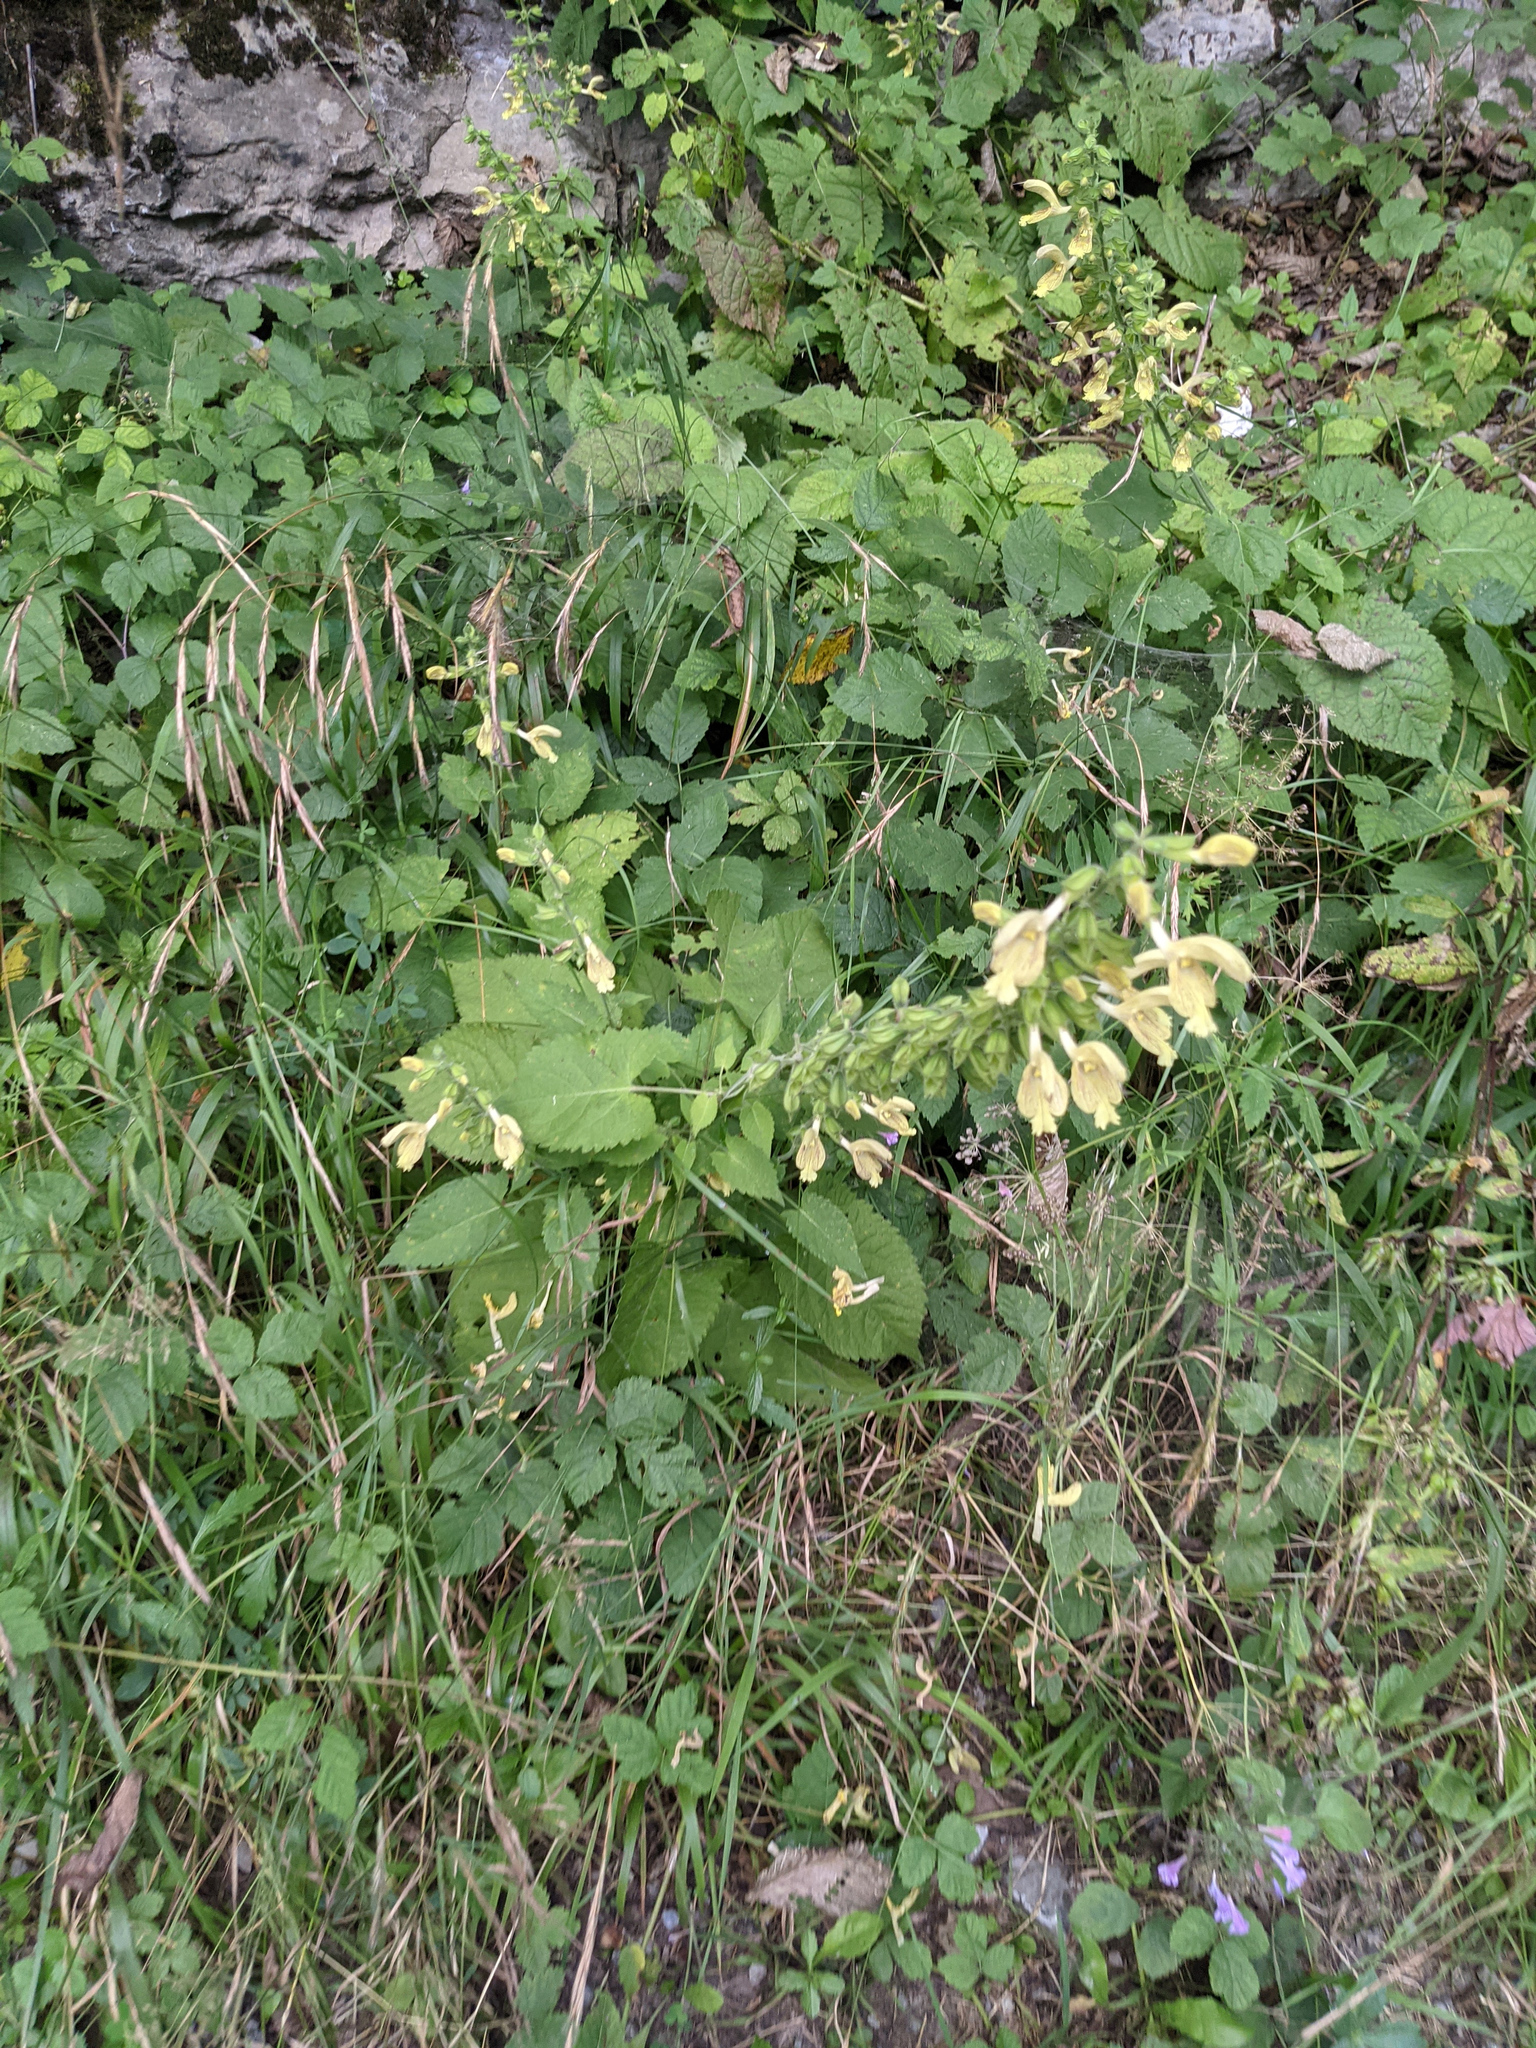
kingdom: Plantae
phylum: Tracheophyta
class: Magnoliopsida
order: Lamiales
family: Lamiaceae
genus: Salvia
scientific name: Salvia glutinosa
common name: Sticky clary
